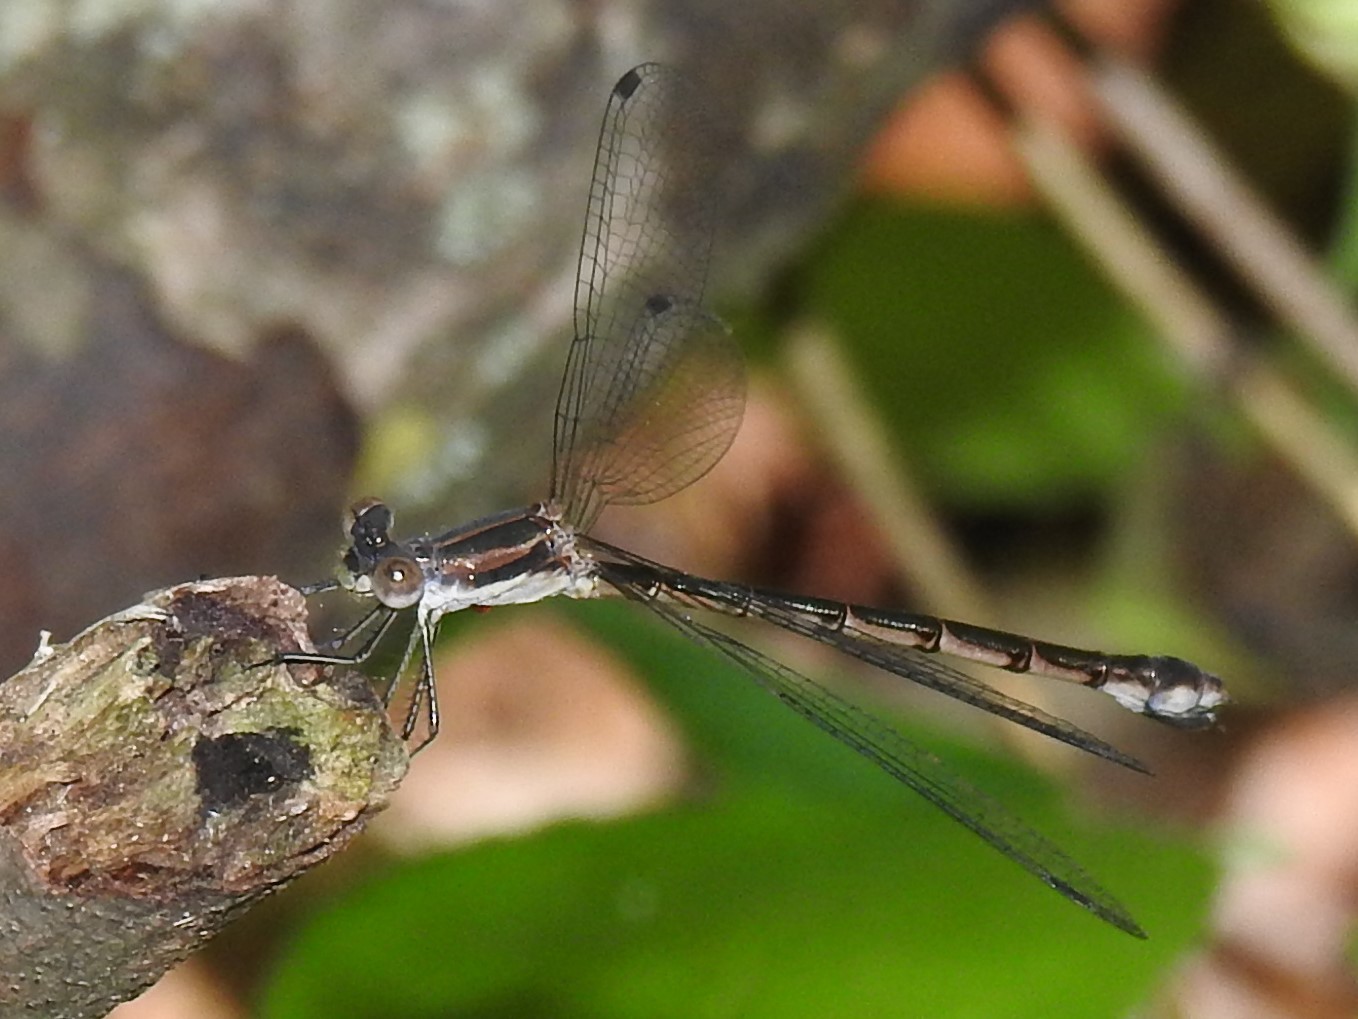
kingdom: Animalia
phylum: Arthropoda
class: Insecta
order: Odonata
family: Lestidae
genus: Lestes
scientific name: Lestes forcipatus
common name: Sweetflag spreadwing
